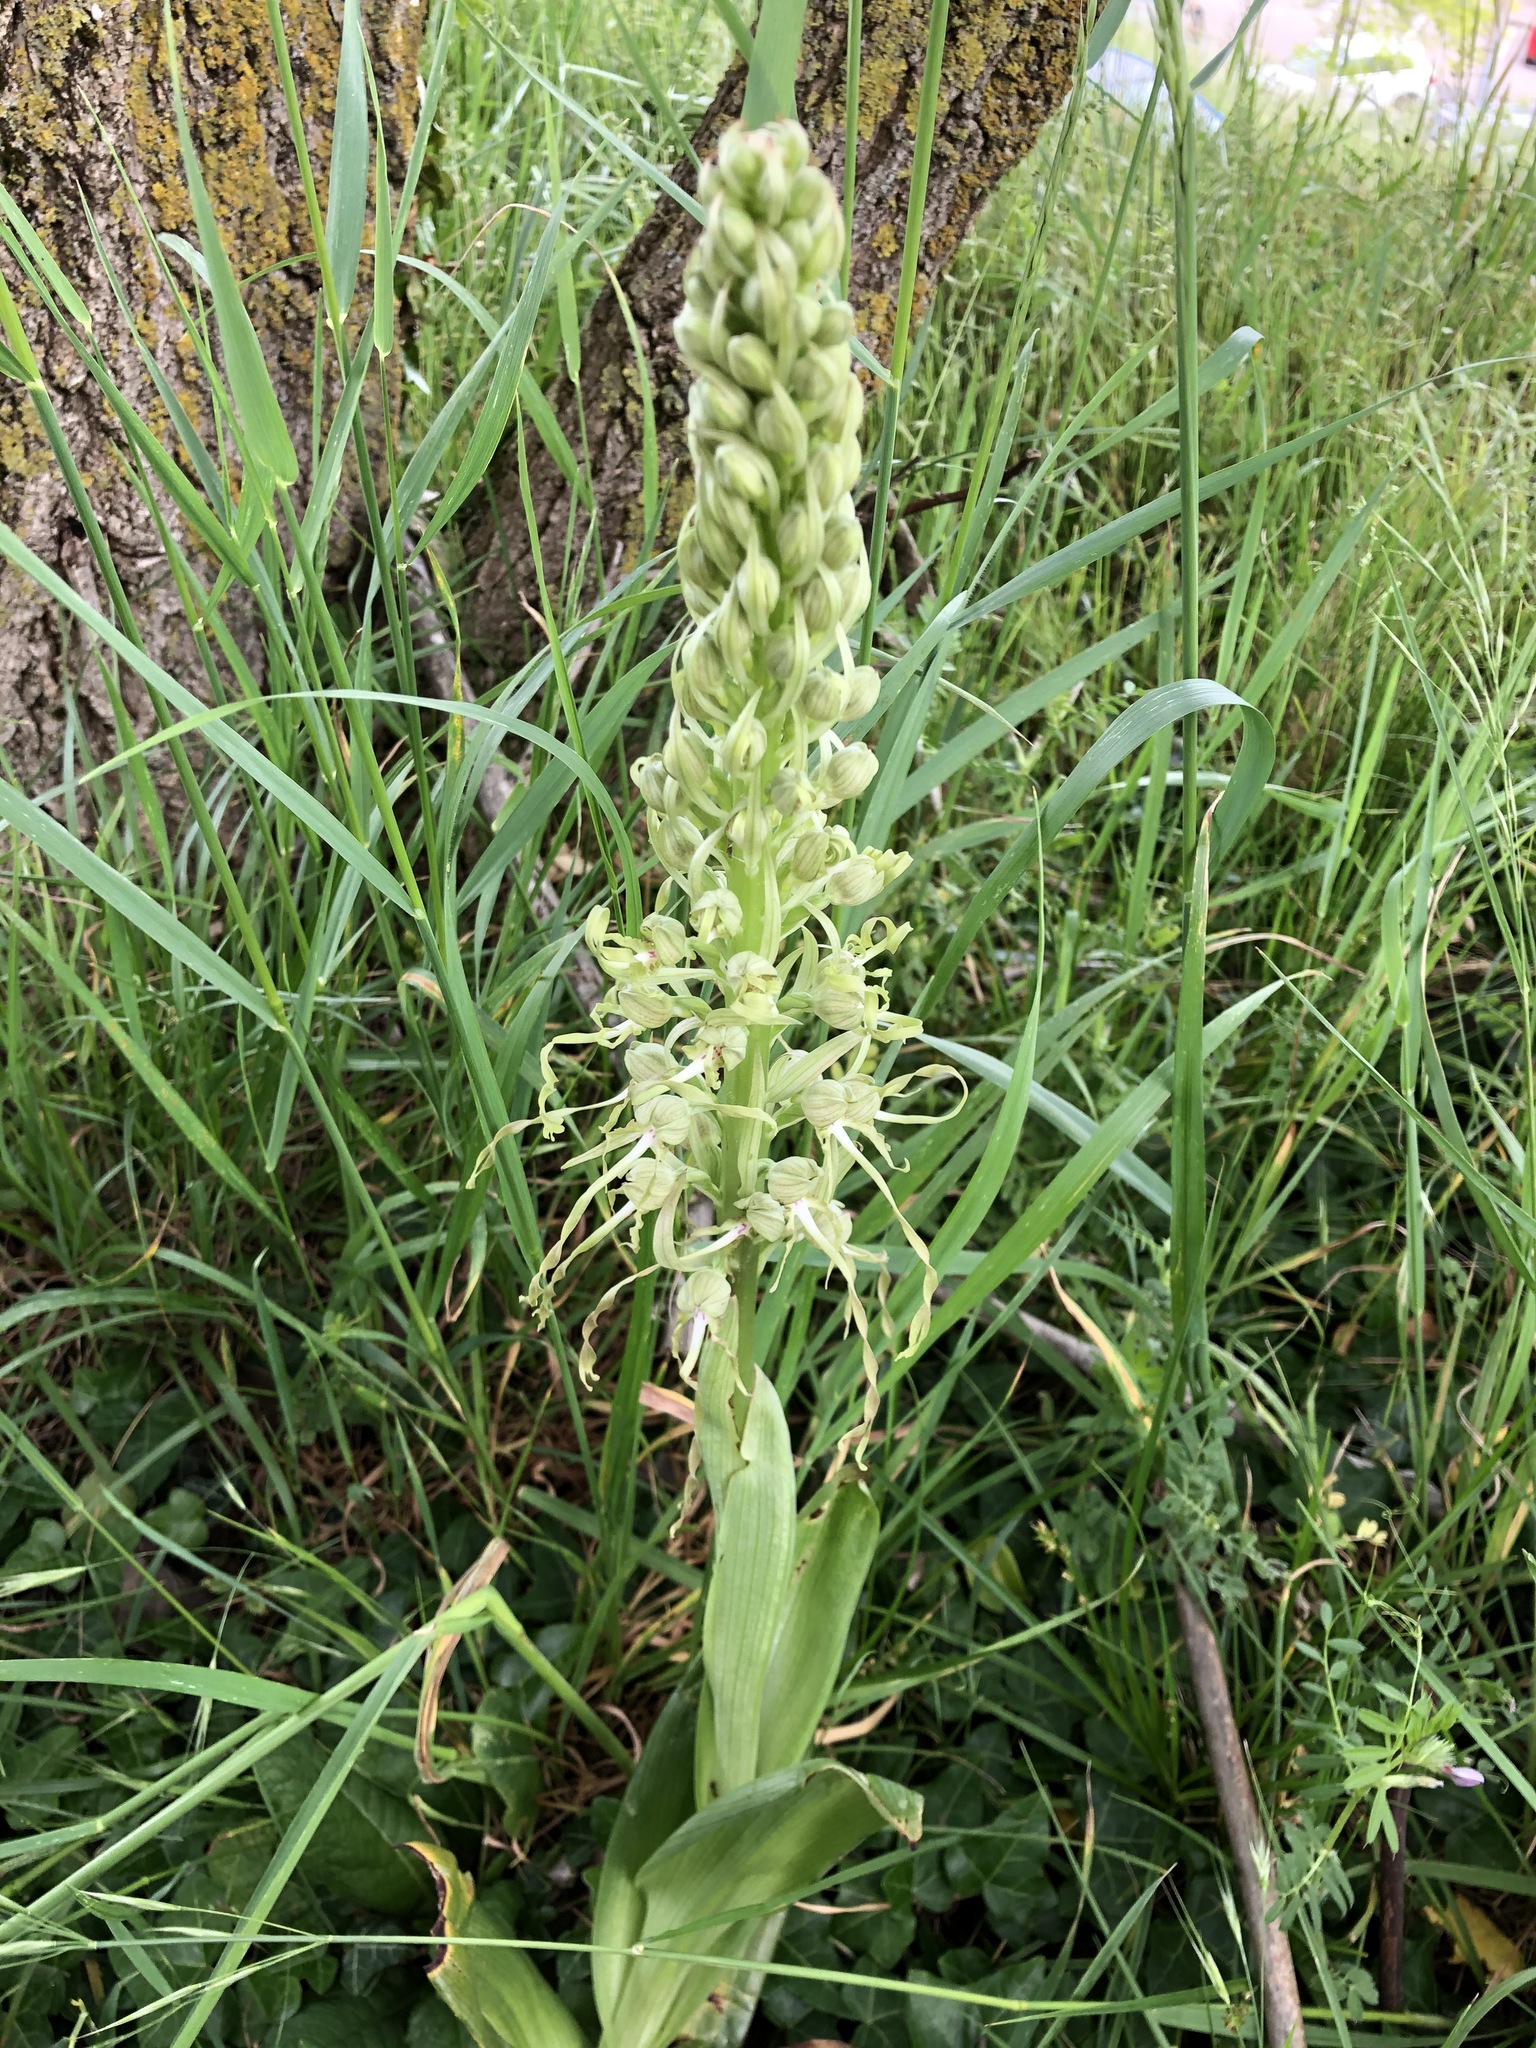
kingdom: Plantae
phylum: Tracheophyta
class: Liliopsida
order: Asparagales
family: Orchidaceae
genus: Himantoglossum
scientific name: Himantoglossum hircinum
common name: Lizard orchid
